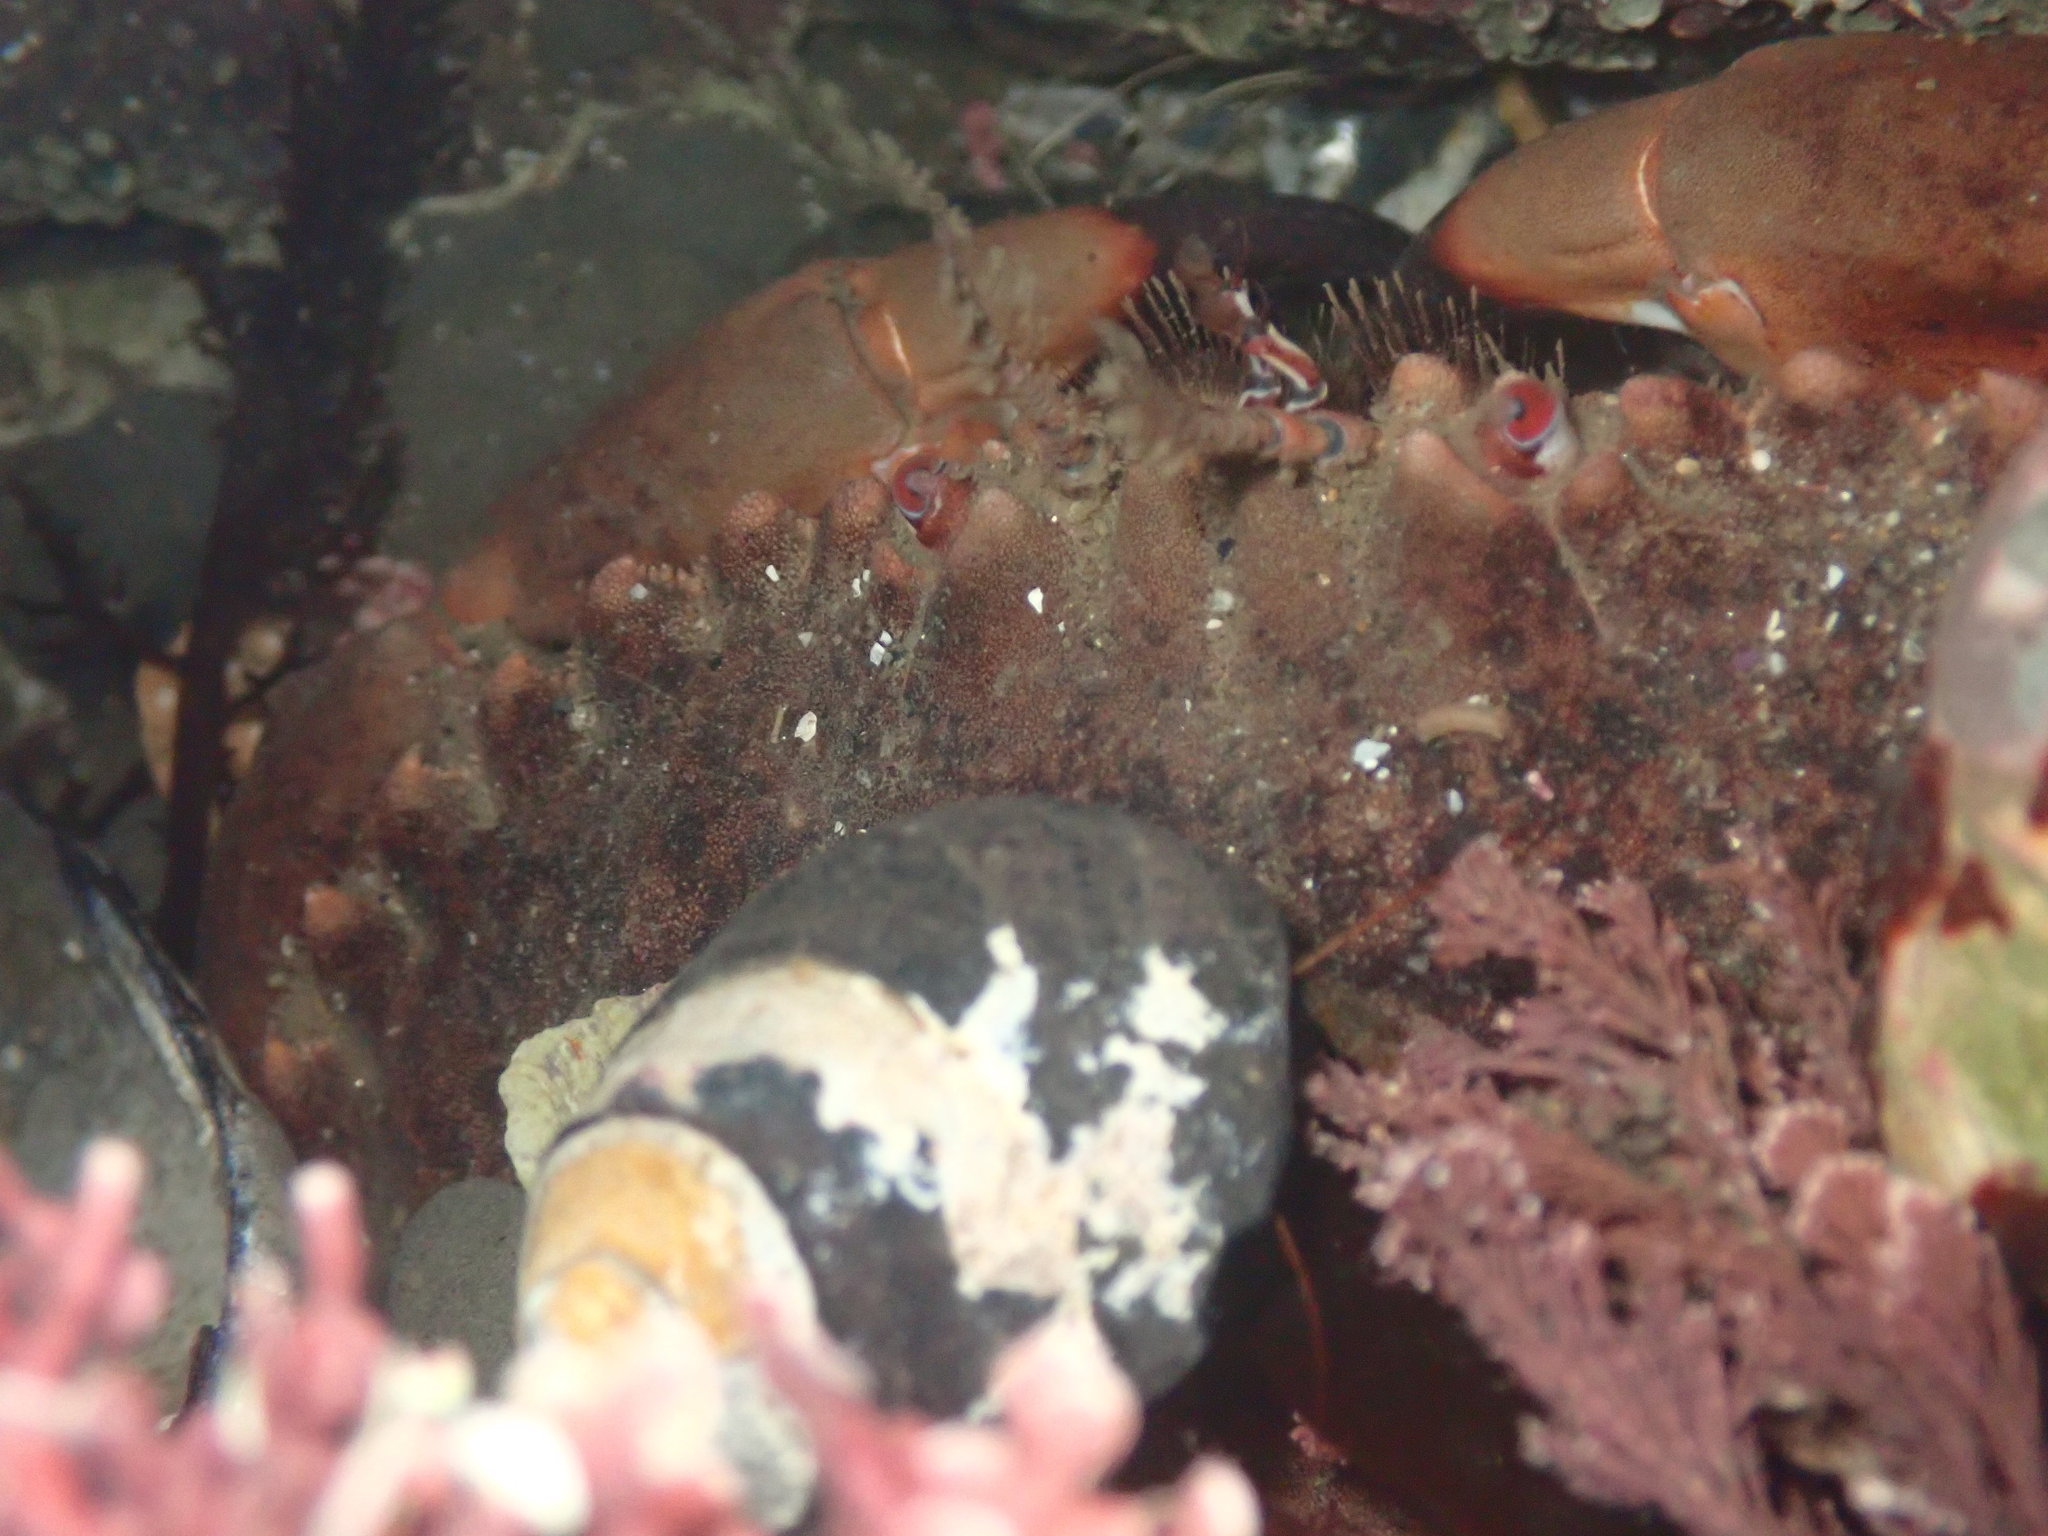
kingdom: Animalia
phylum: Arthropoda
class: Malacostraca
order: Decapoda
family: Cancridae
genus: Romaleon
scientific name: Romaleon antennarium
